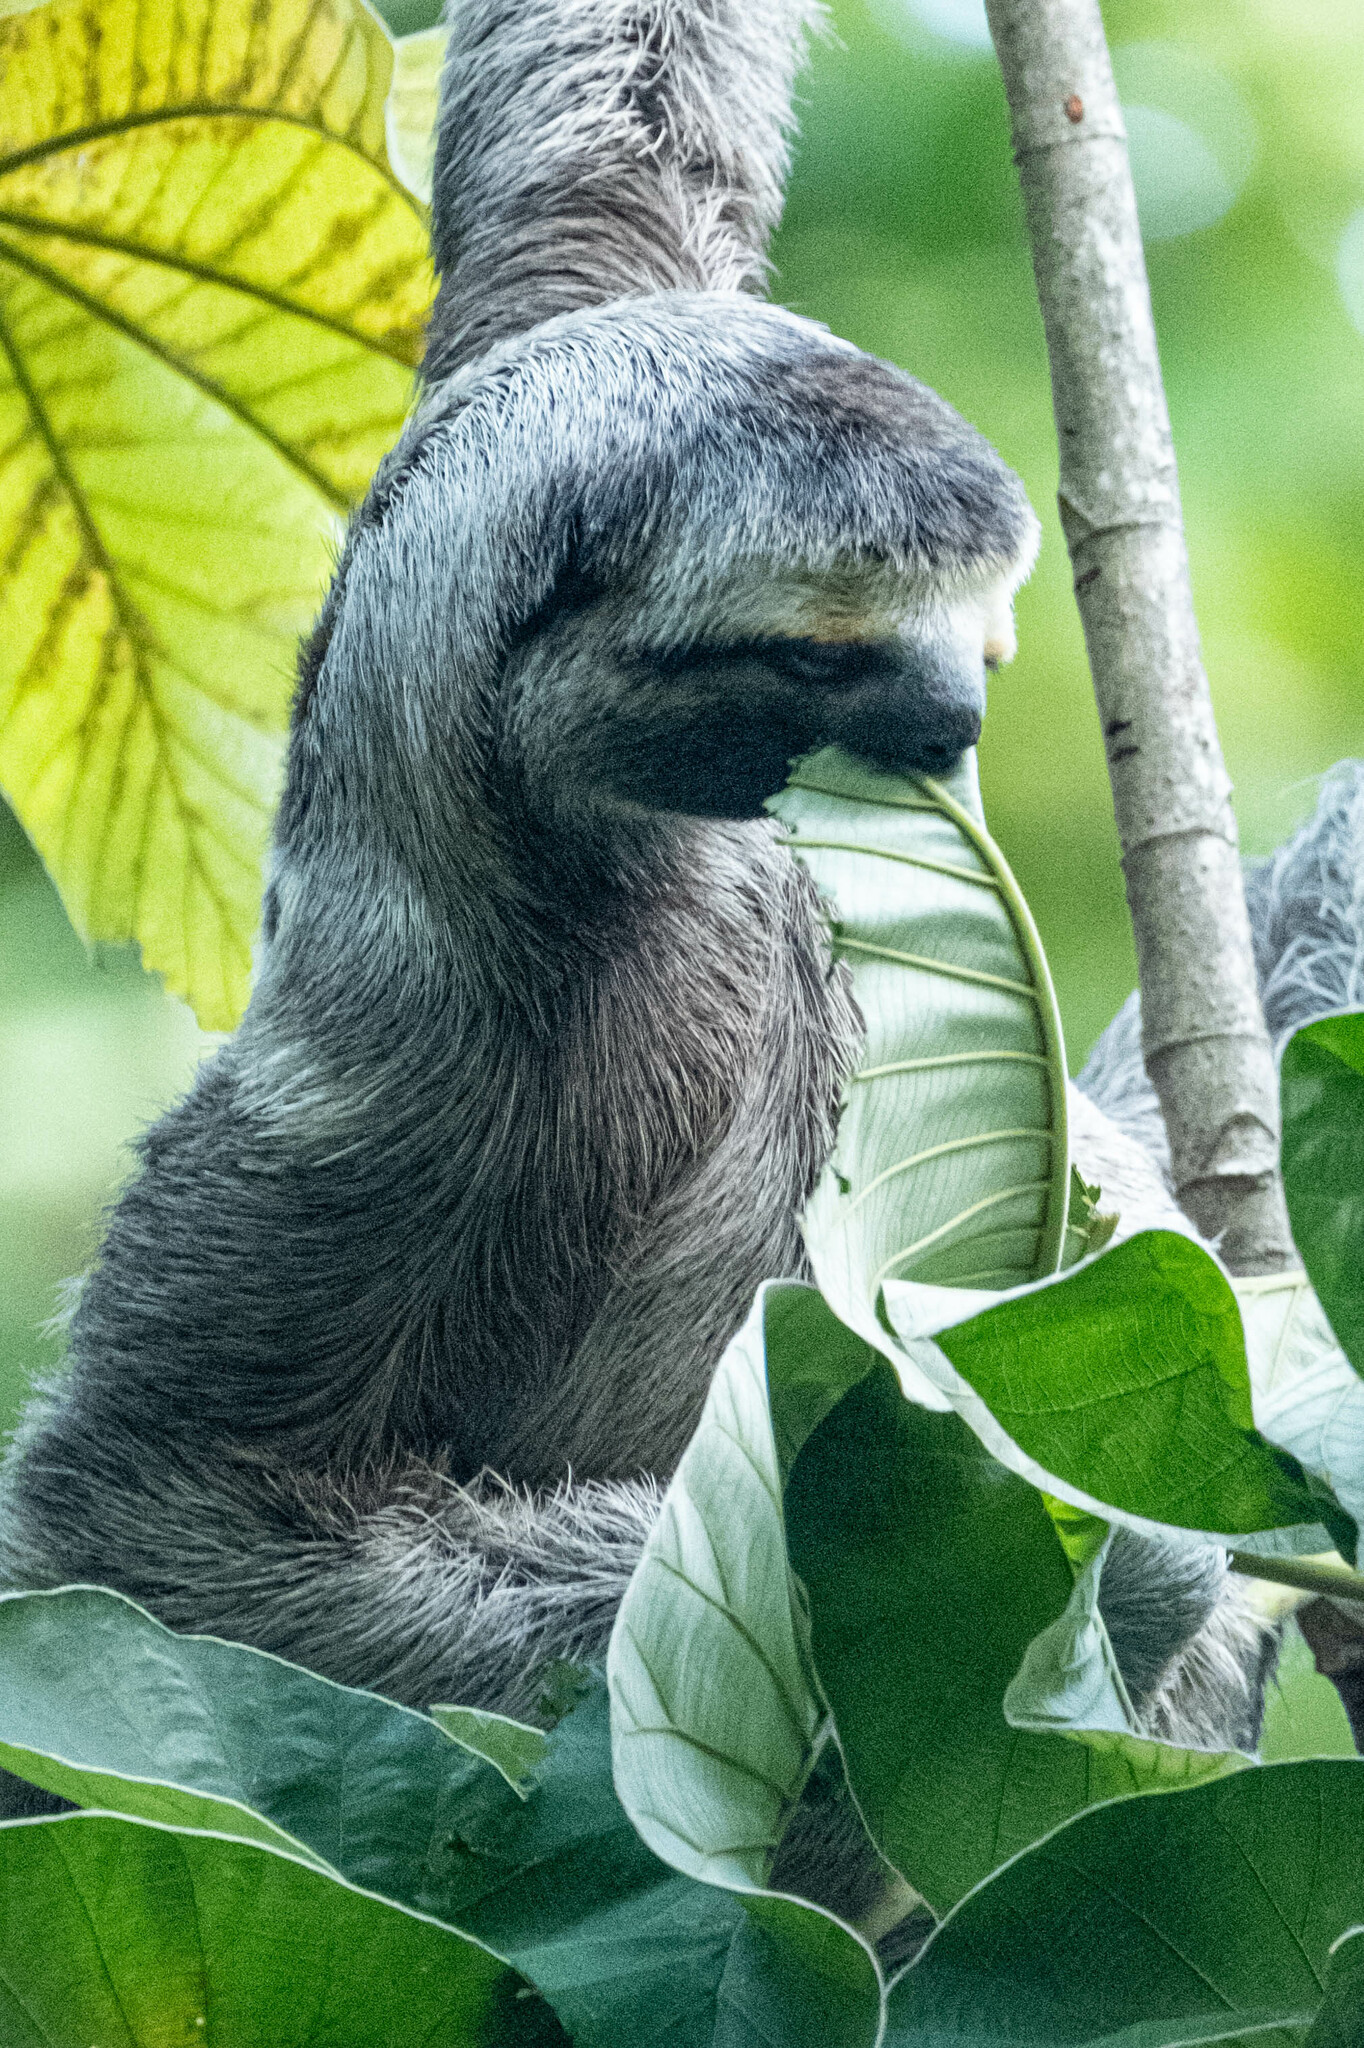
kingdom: Animalia
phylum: Chordata
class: Mammalia
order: Pilosa
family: Bradypodidae
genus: Bradypus
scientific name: Bradypus variegatus
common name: Brown-throated three-toed sloth
